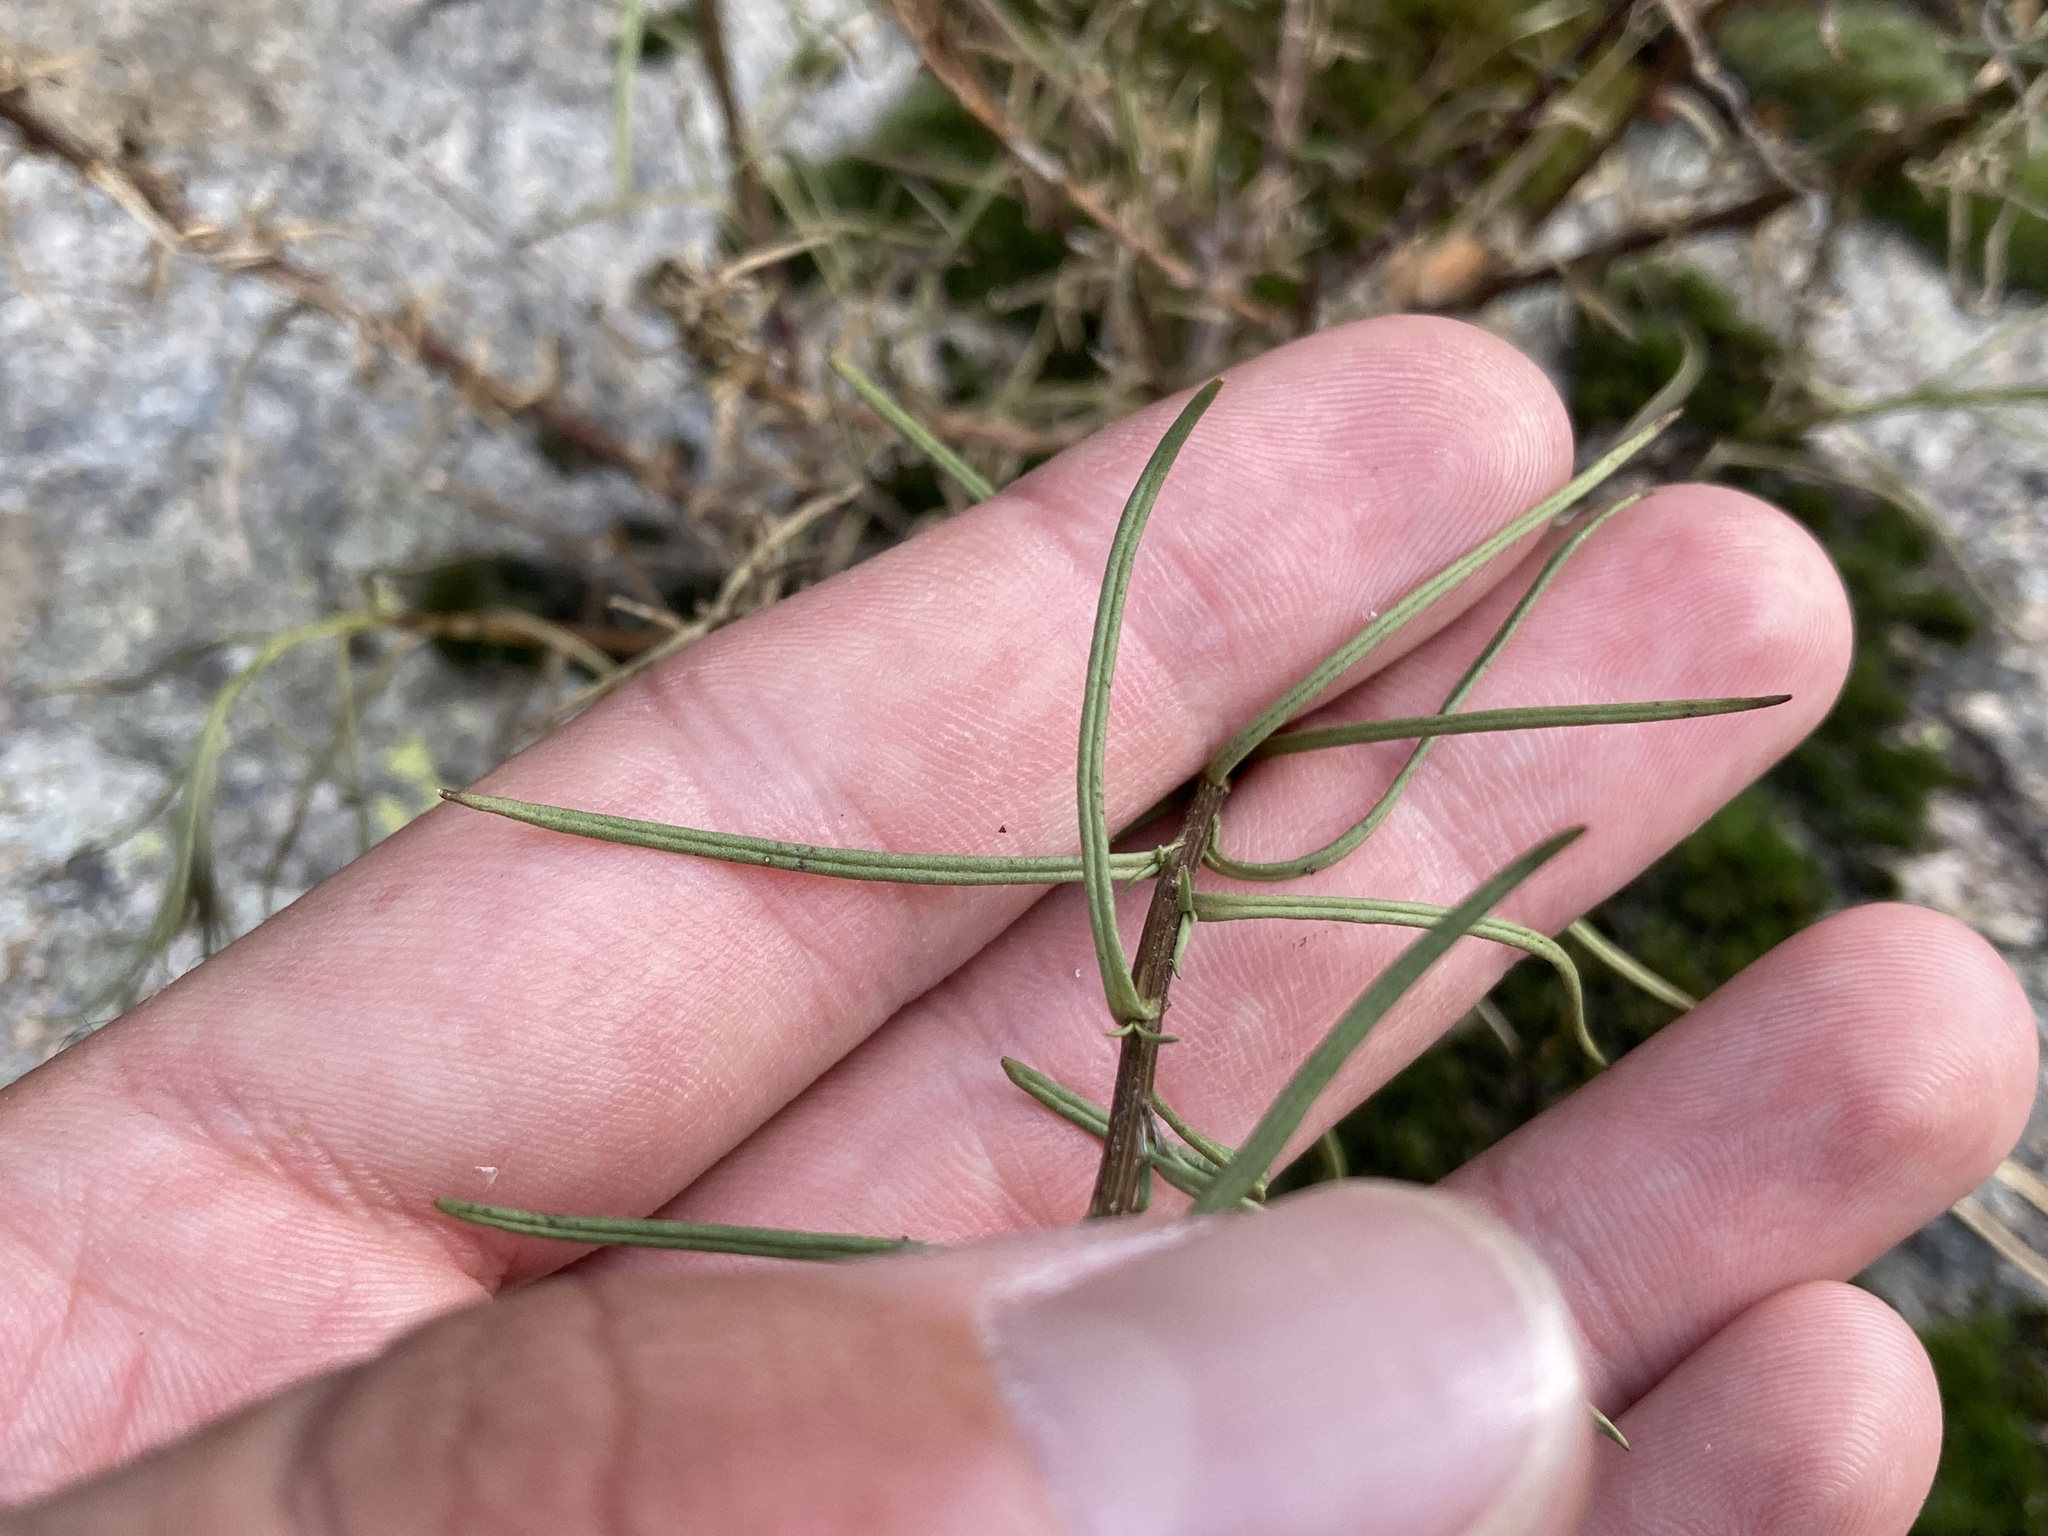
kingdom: Plantae
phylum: Tracheophyta
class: Magnoliopsida
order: Asterales
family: Asteraceae
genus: Senecio
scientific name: Senecio inaequidens
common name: Narrow-leaved ragwort
